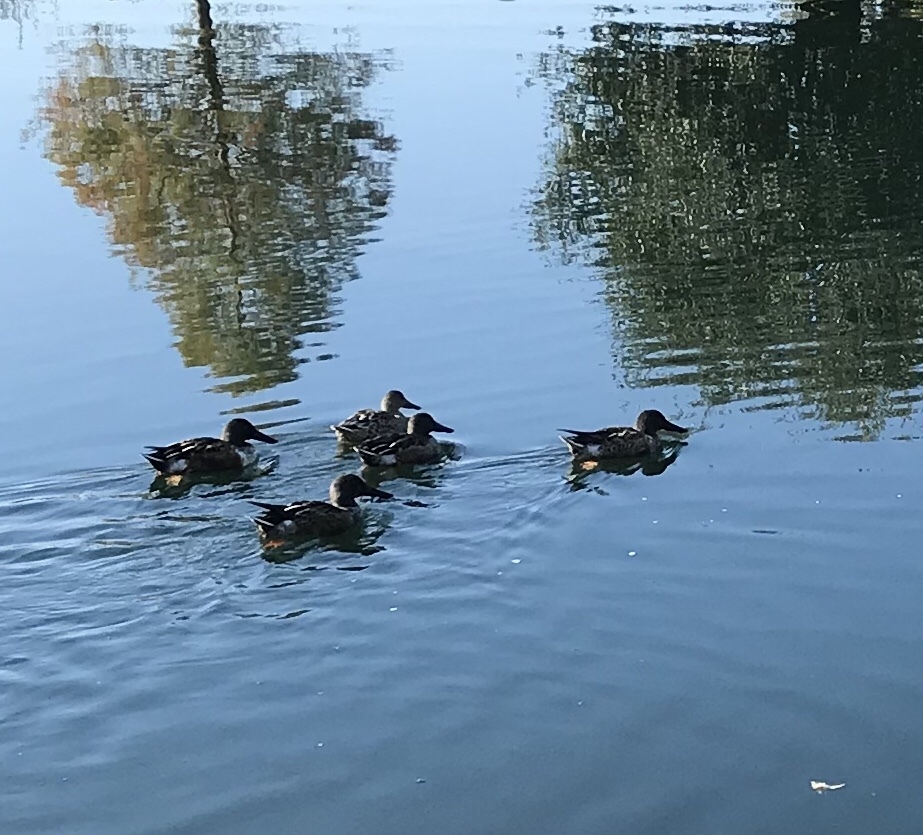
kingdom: Animalia
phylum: Chordata
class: Aves
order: Anseriformes
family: Anatidae
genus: Spatula
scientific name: Spatula clypeata
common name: Northern shoveler
